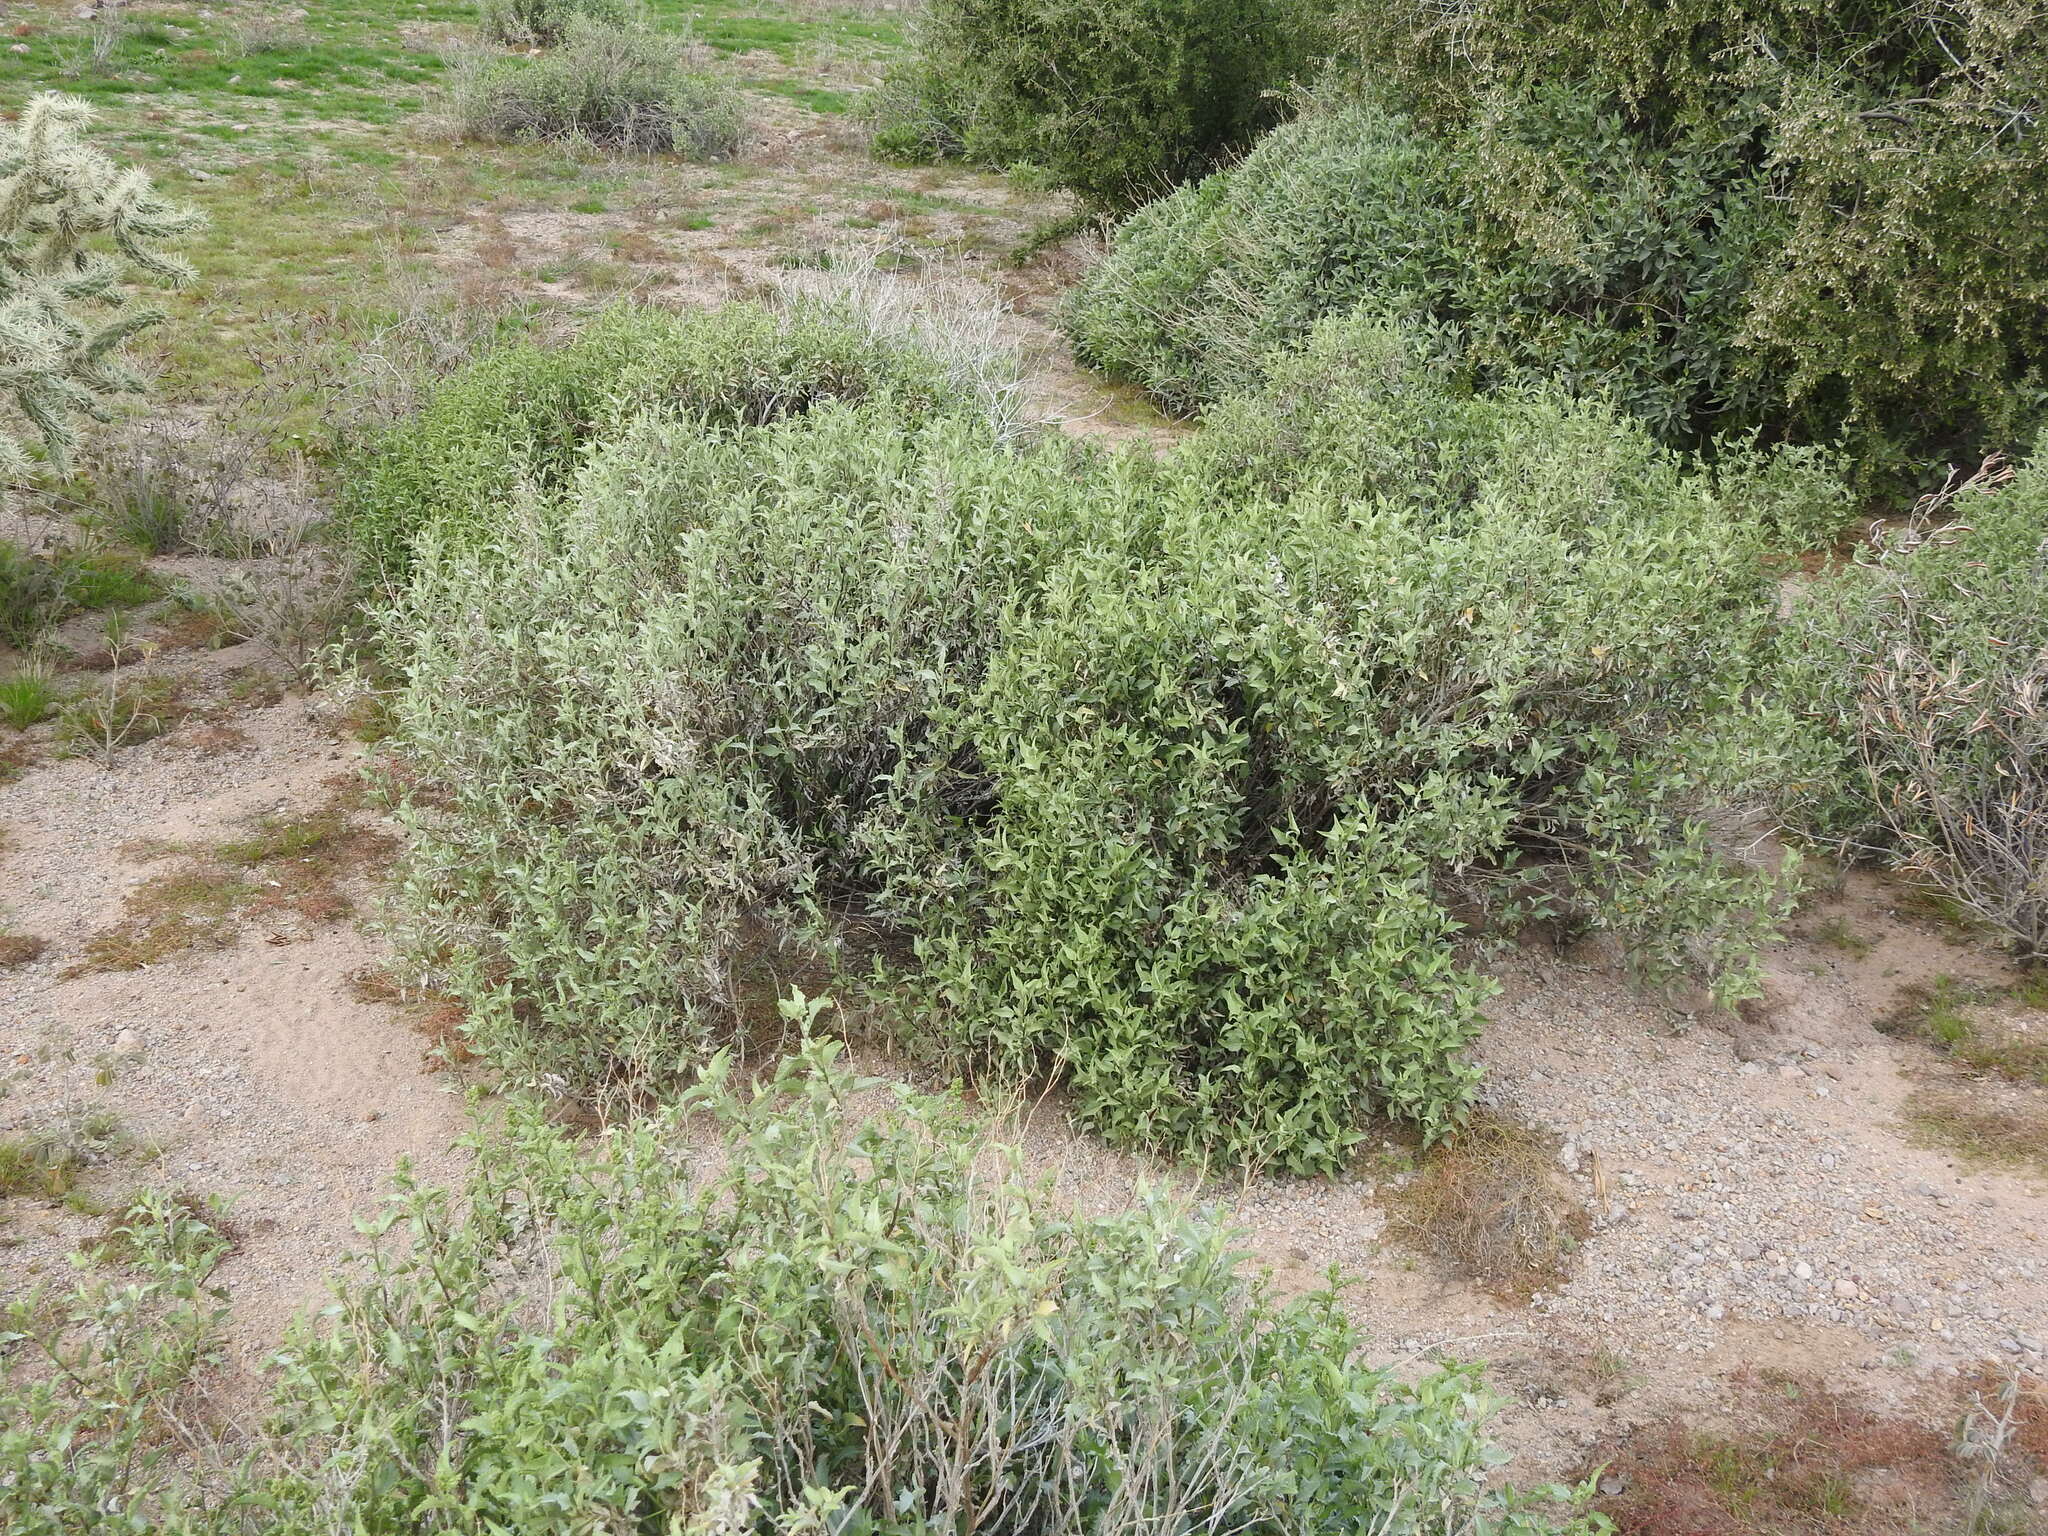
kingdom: Plantae
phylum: Tracheophyta
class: Magnoliopsida
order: Asterales
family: Asteraceae
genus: Ambrosia
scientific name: Ambrosia deltoidea
